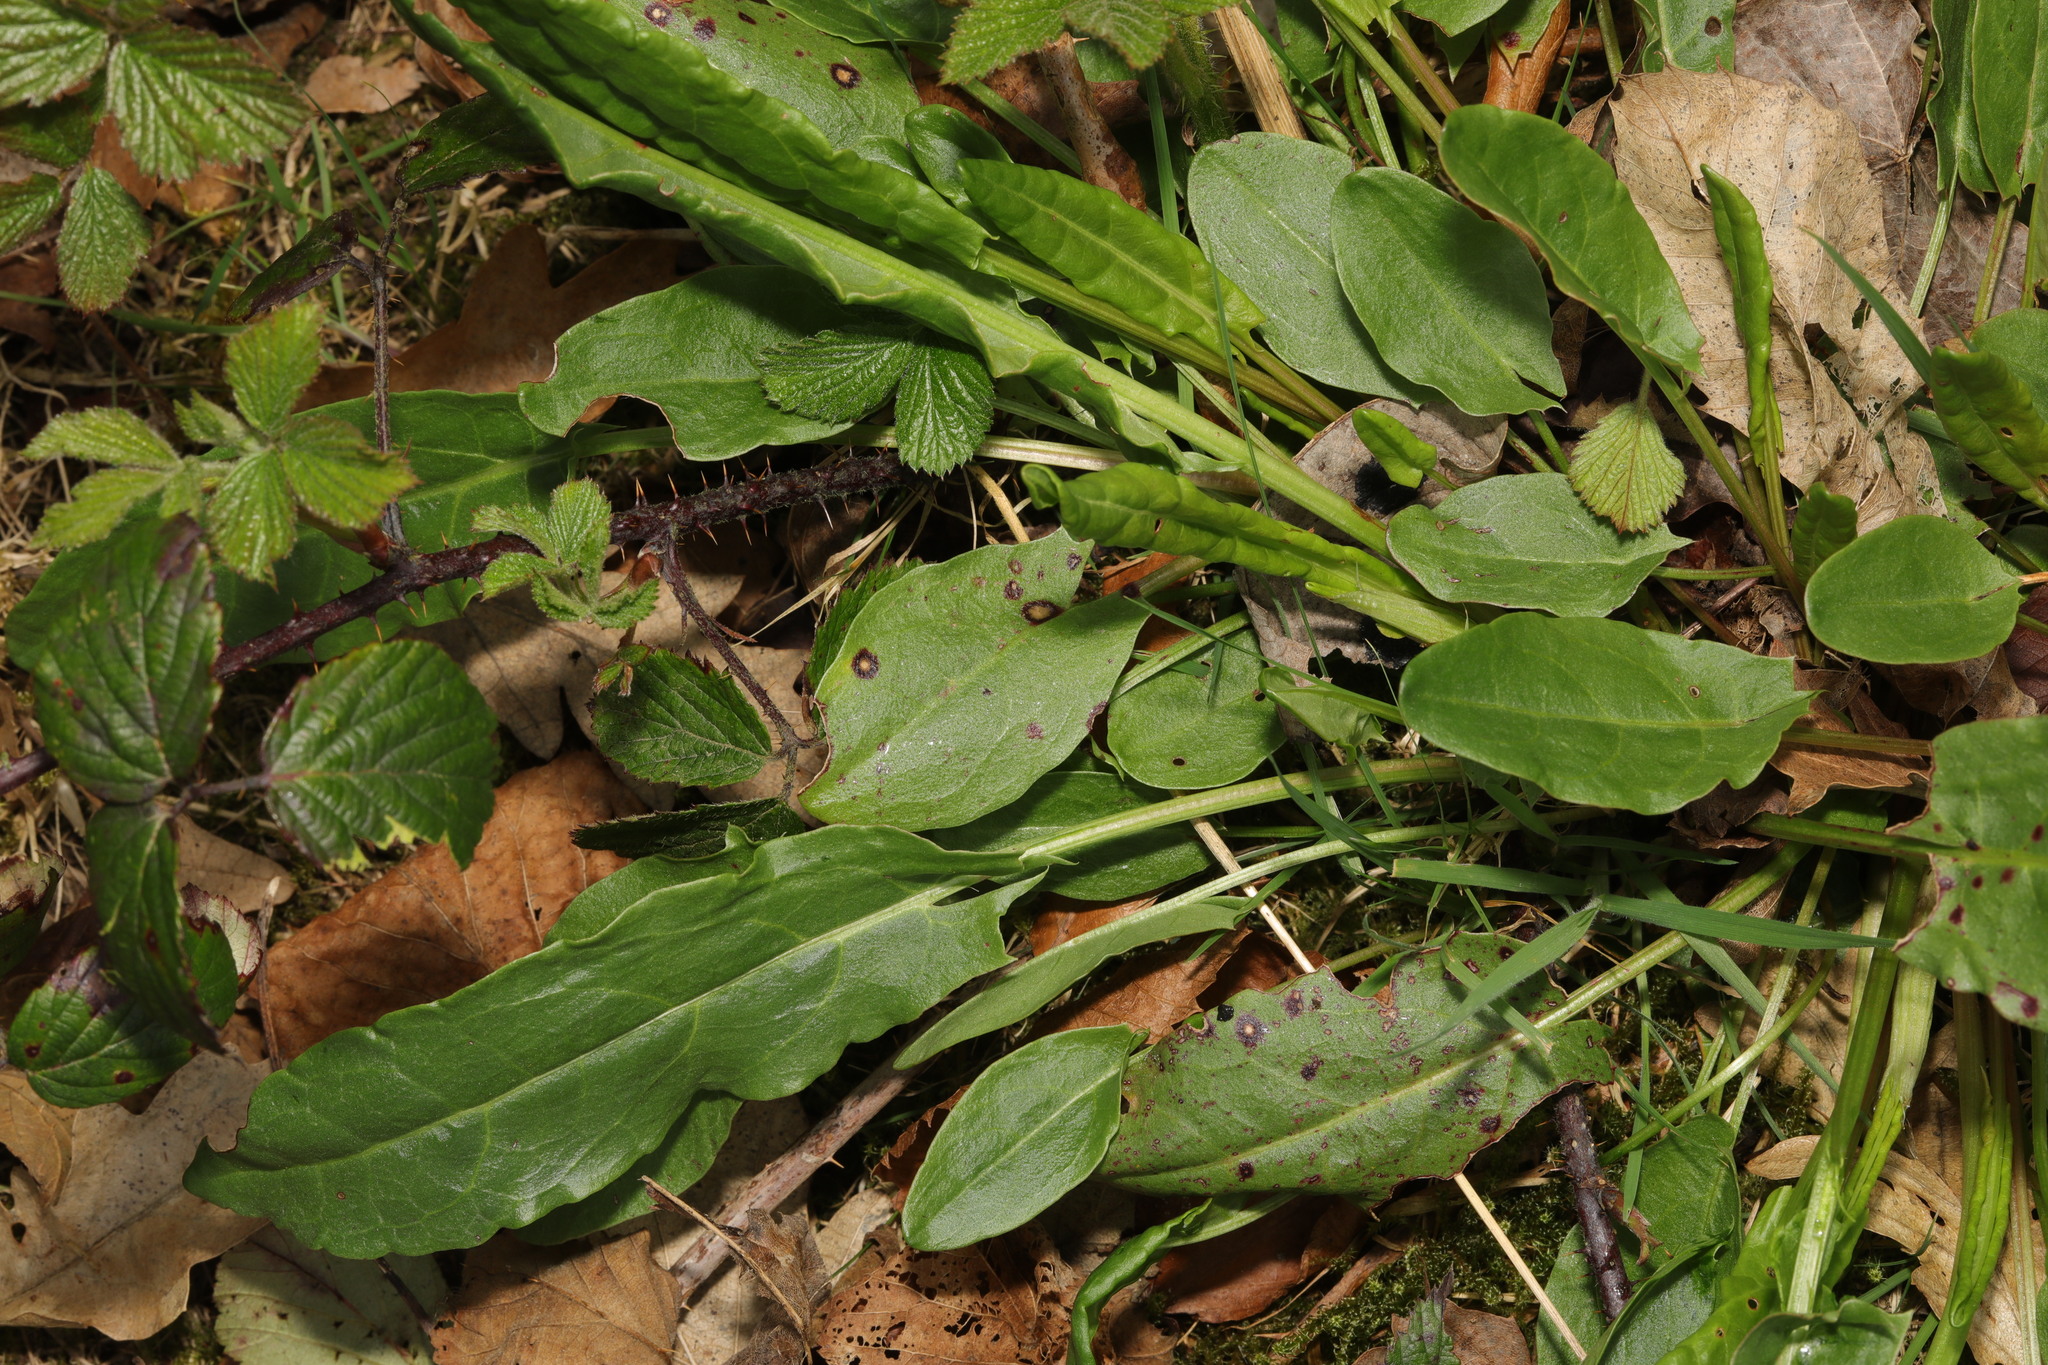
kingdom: Plantae
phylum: Tracheophyta
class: Magnoliopsida
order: Caryophyllales
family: Polygonaceae
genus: Rumex
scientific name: Rumex acetosa
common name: Garden sorrel
